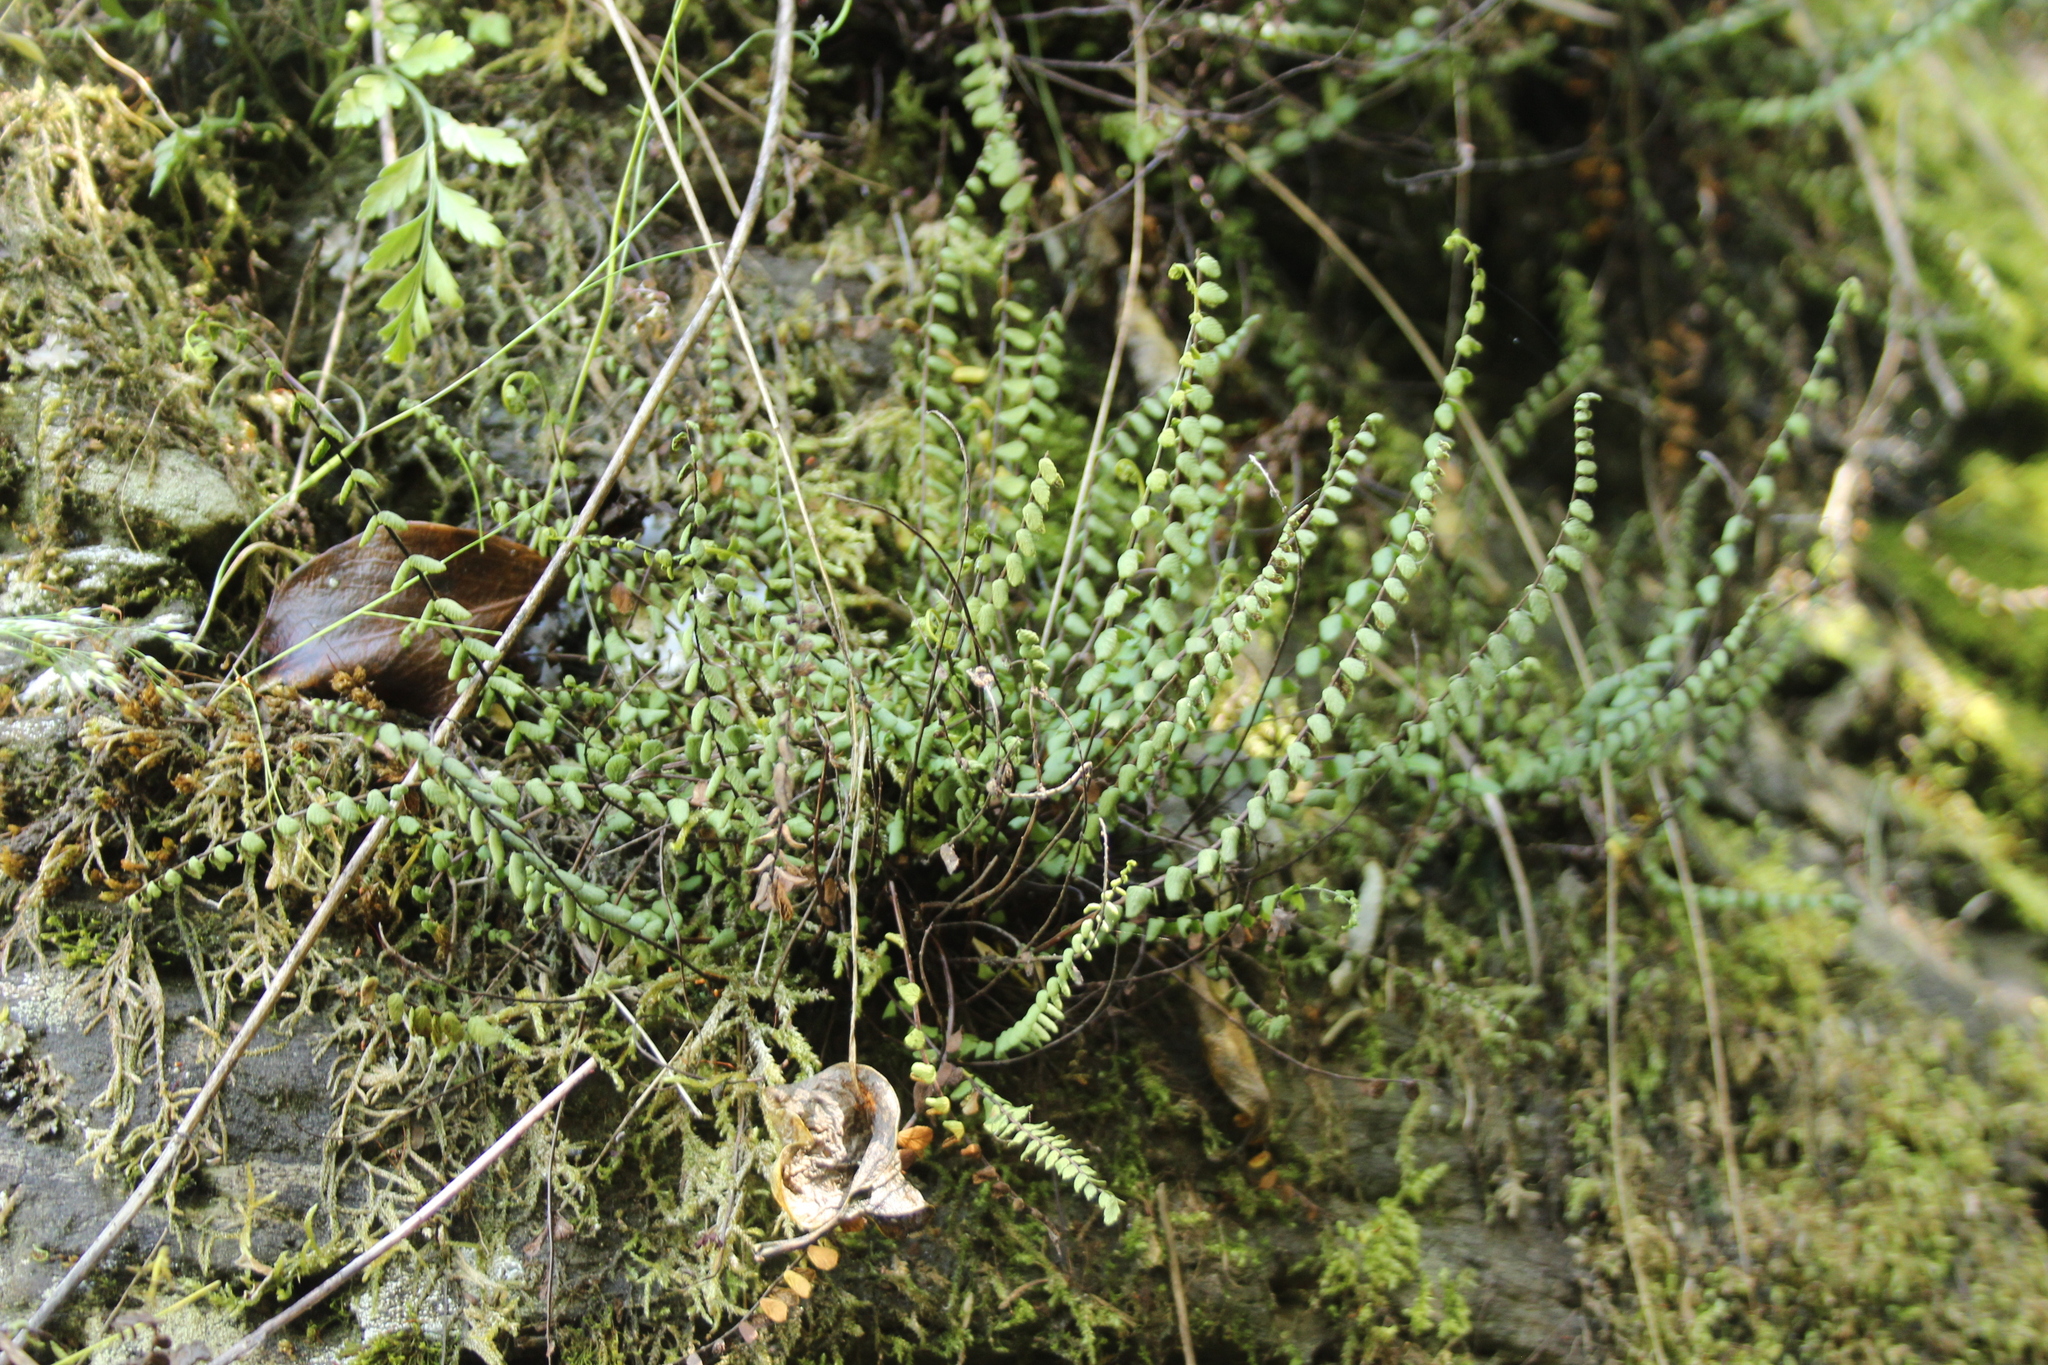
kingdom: Plantae
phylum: Tracheophyta
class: Polypodiopsida
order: Polypodiales
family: Aspleniaceae
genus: Asplenium
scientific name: Asplenium trichomanes
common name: Maidenhair spleenwort
